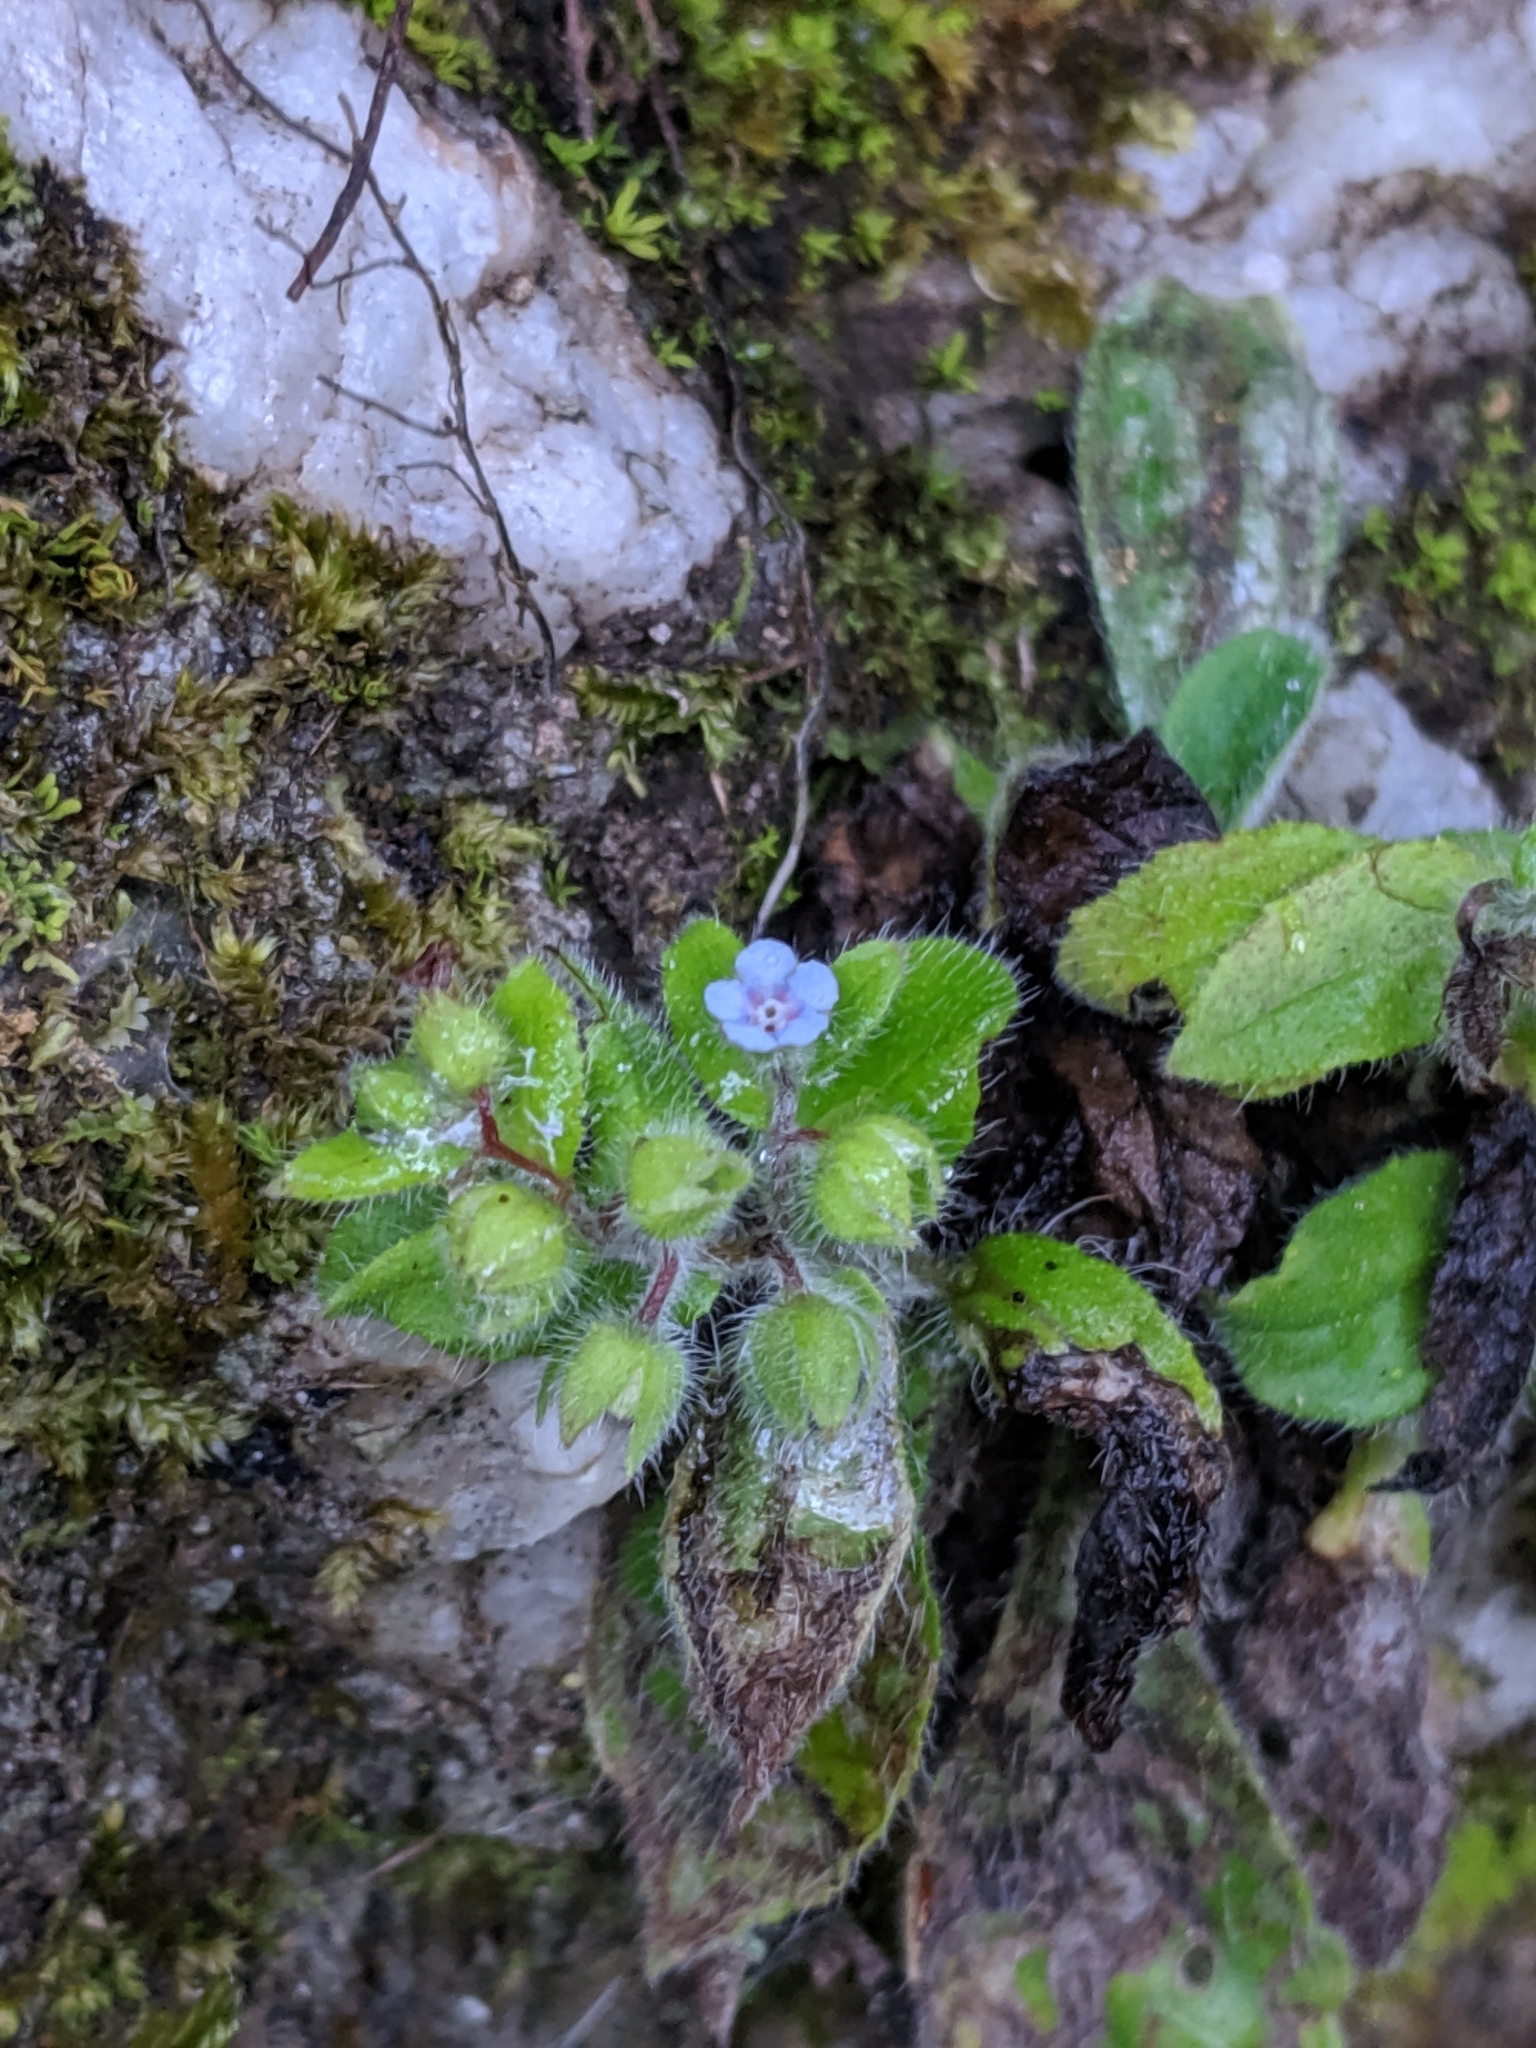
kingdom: Plantae
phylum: Tracheophyta
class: Magnoliopsida
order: Boraginales
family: Boraginaceae
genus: Thyrocarpus
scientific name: Thyrocarpus sampsonii
